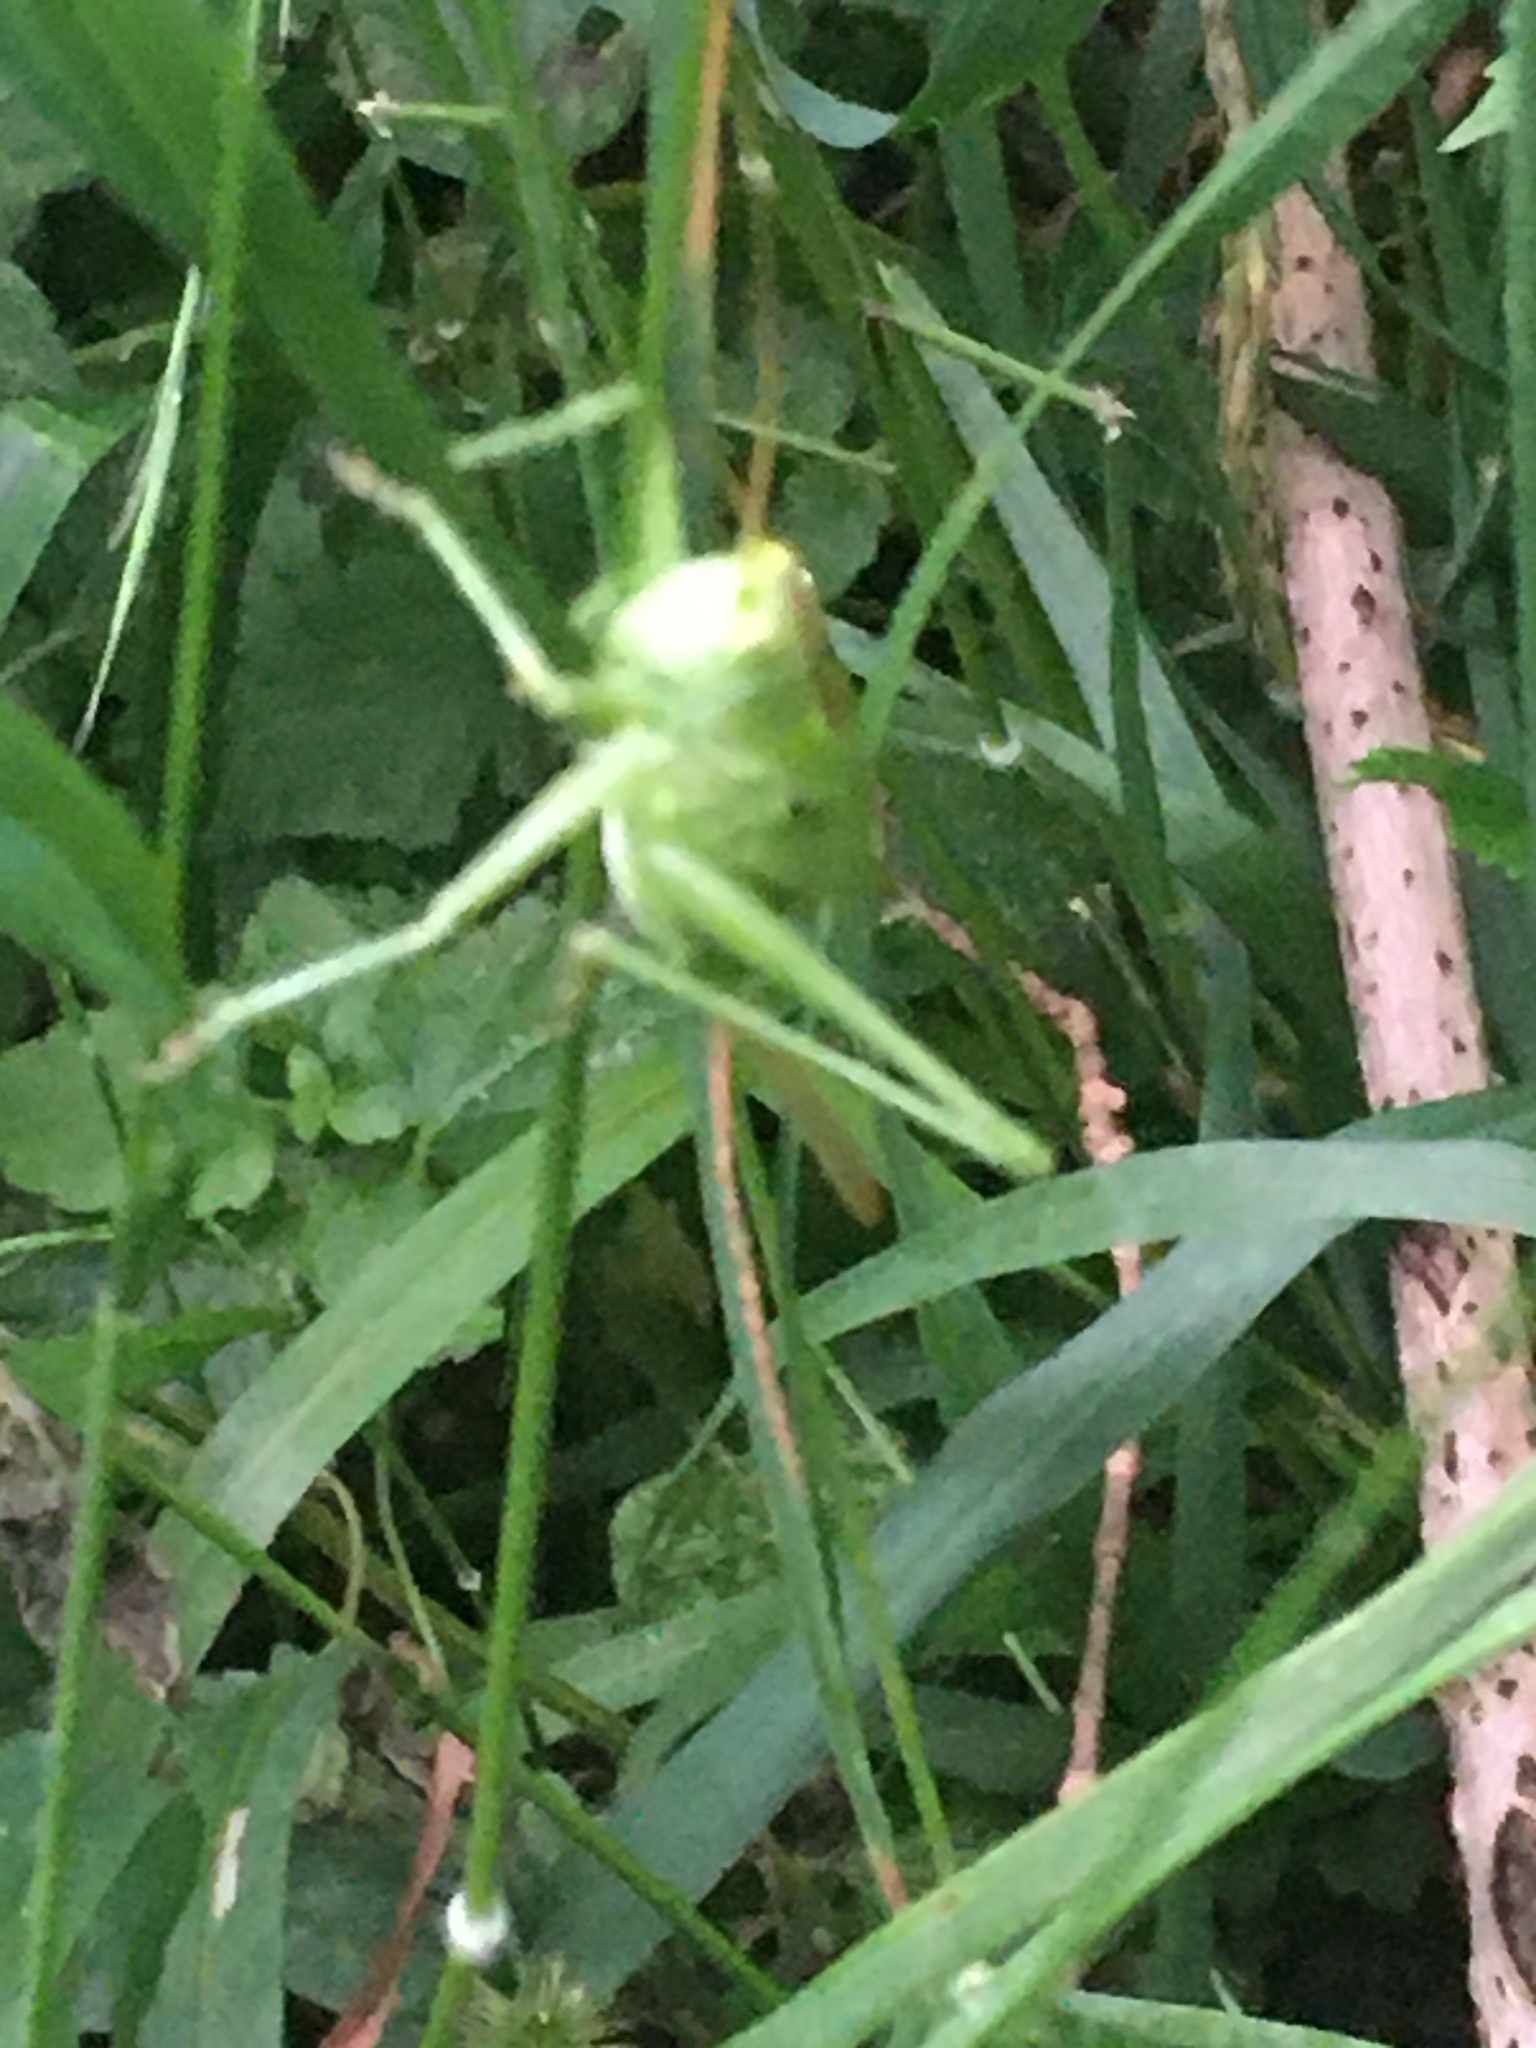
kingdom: Animalia
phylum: Arthropoda
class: Insecta
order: Orthoptera
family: Tettigoniidae
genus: Tettigonia
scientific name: Tettigonia
